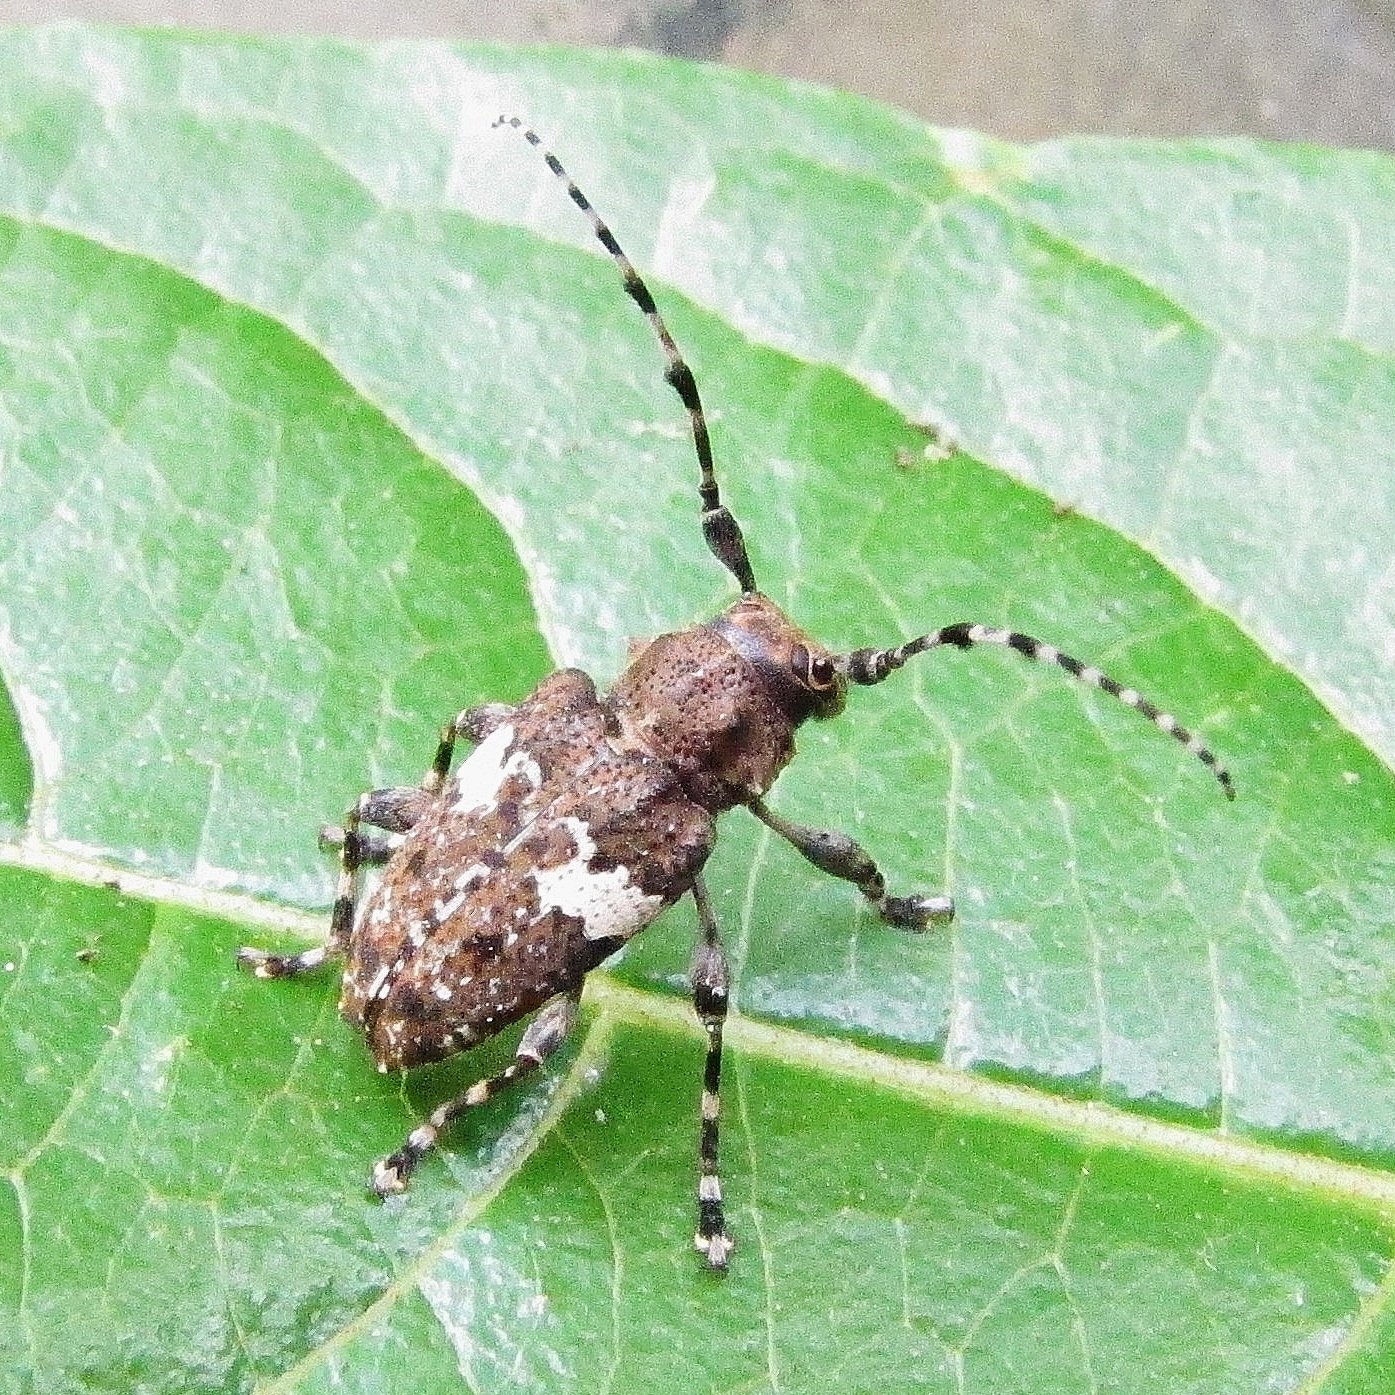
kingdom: Animalia
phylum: Arthropoda
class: Insecta
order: Coleoptera
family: Cerambycidae
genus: Acanthoderes
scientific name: Acanthoderes quadrigibba
